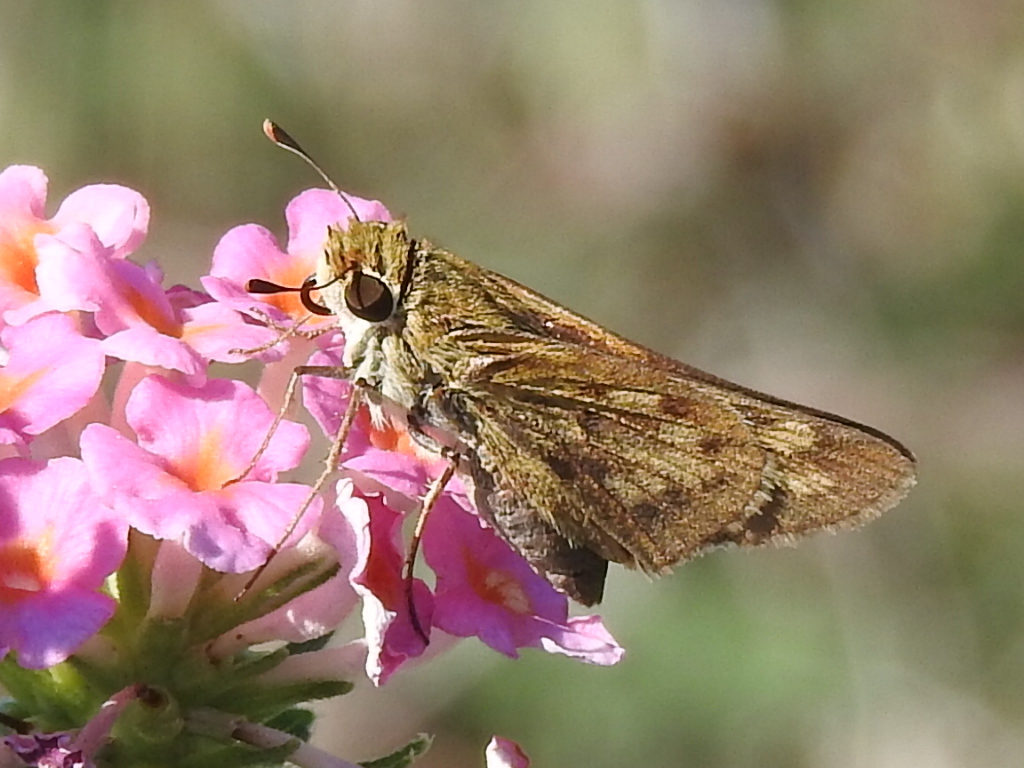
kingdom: Animalia
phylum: Arthropoda
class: Insecta
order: Lepidoptera
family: Hesperiidae
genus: Hylephila
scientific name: Hylephila phyleus
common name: Fiery skipper
